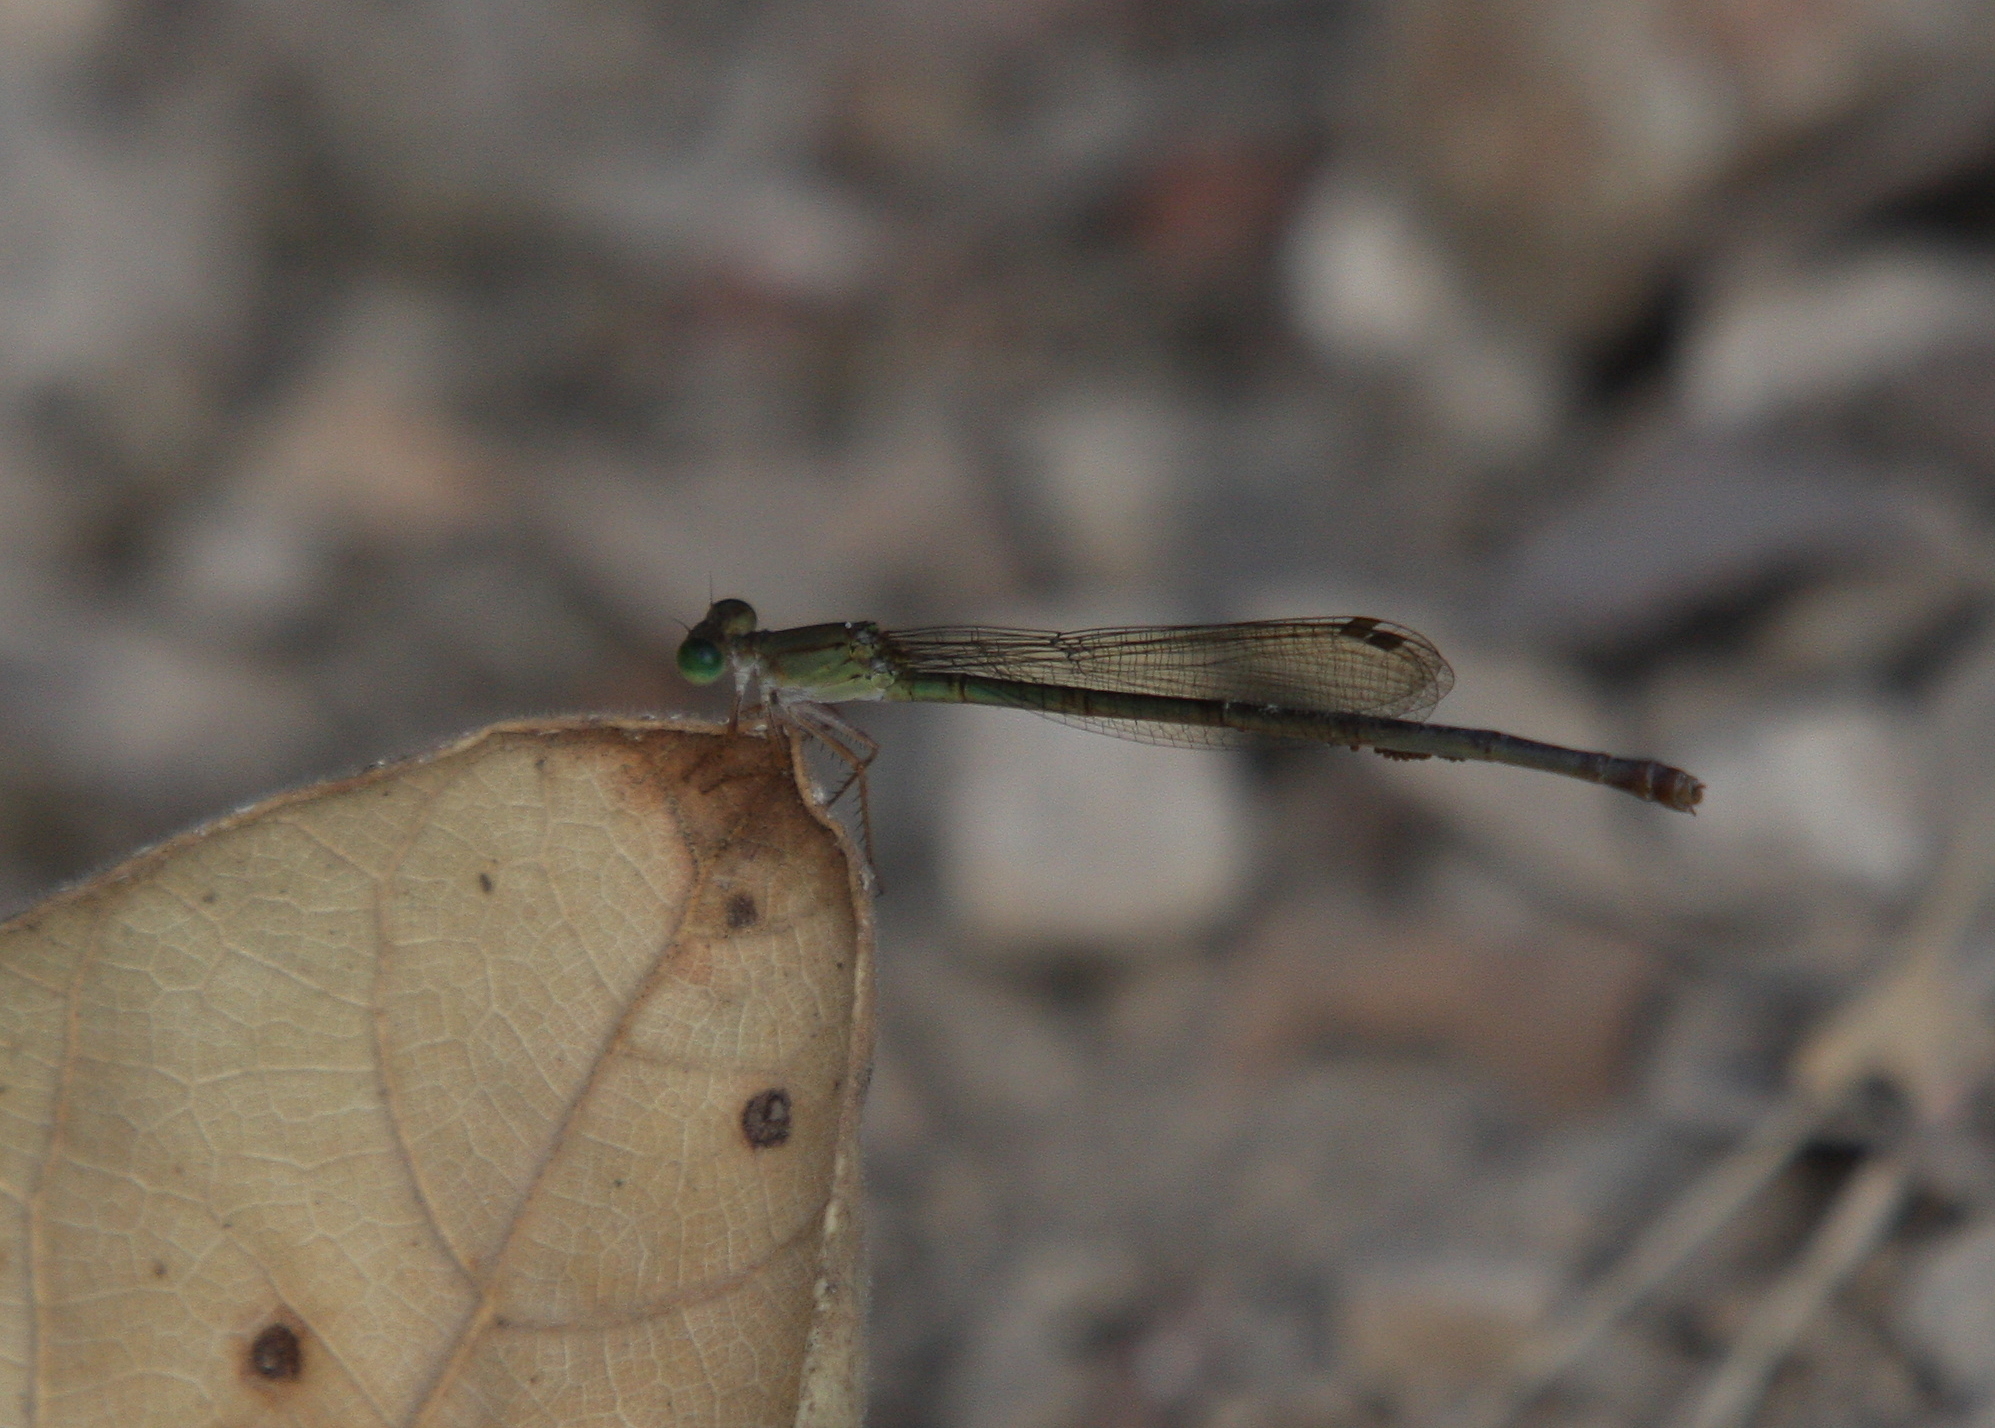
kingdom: Animalia
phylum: Arthropoda
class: Insecta
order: Odonata
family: Coenagrionidae
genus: Ceriagrion
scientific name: Ceriagrion glabrum
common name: Common pond damsel
